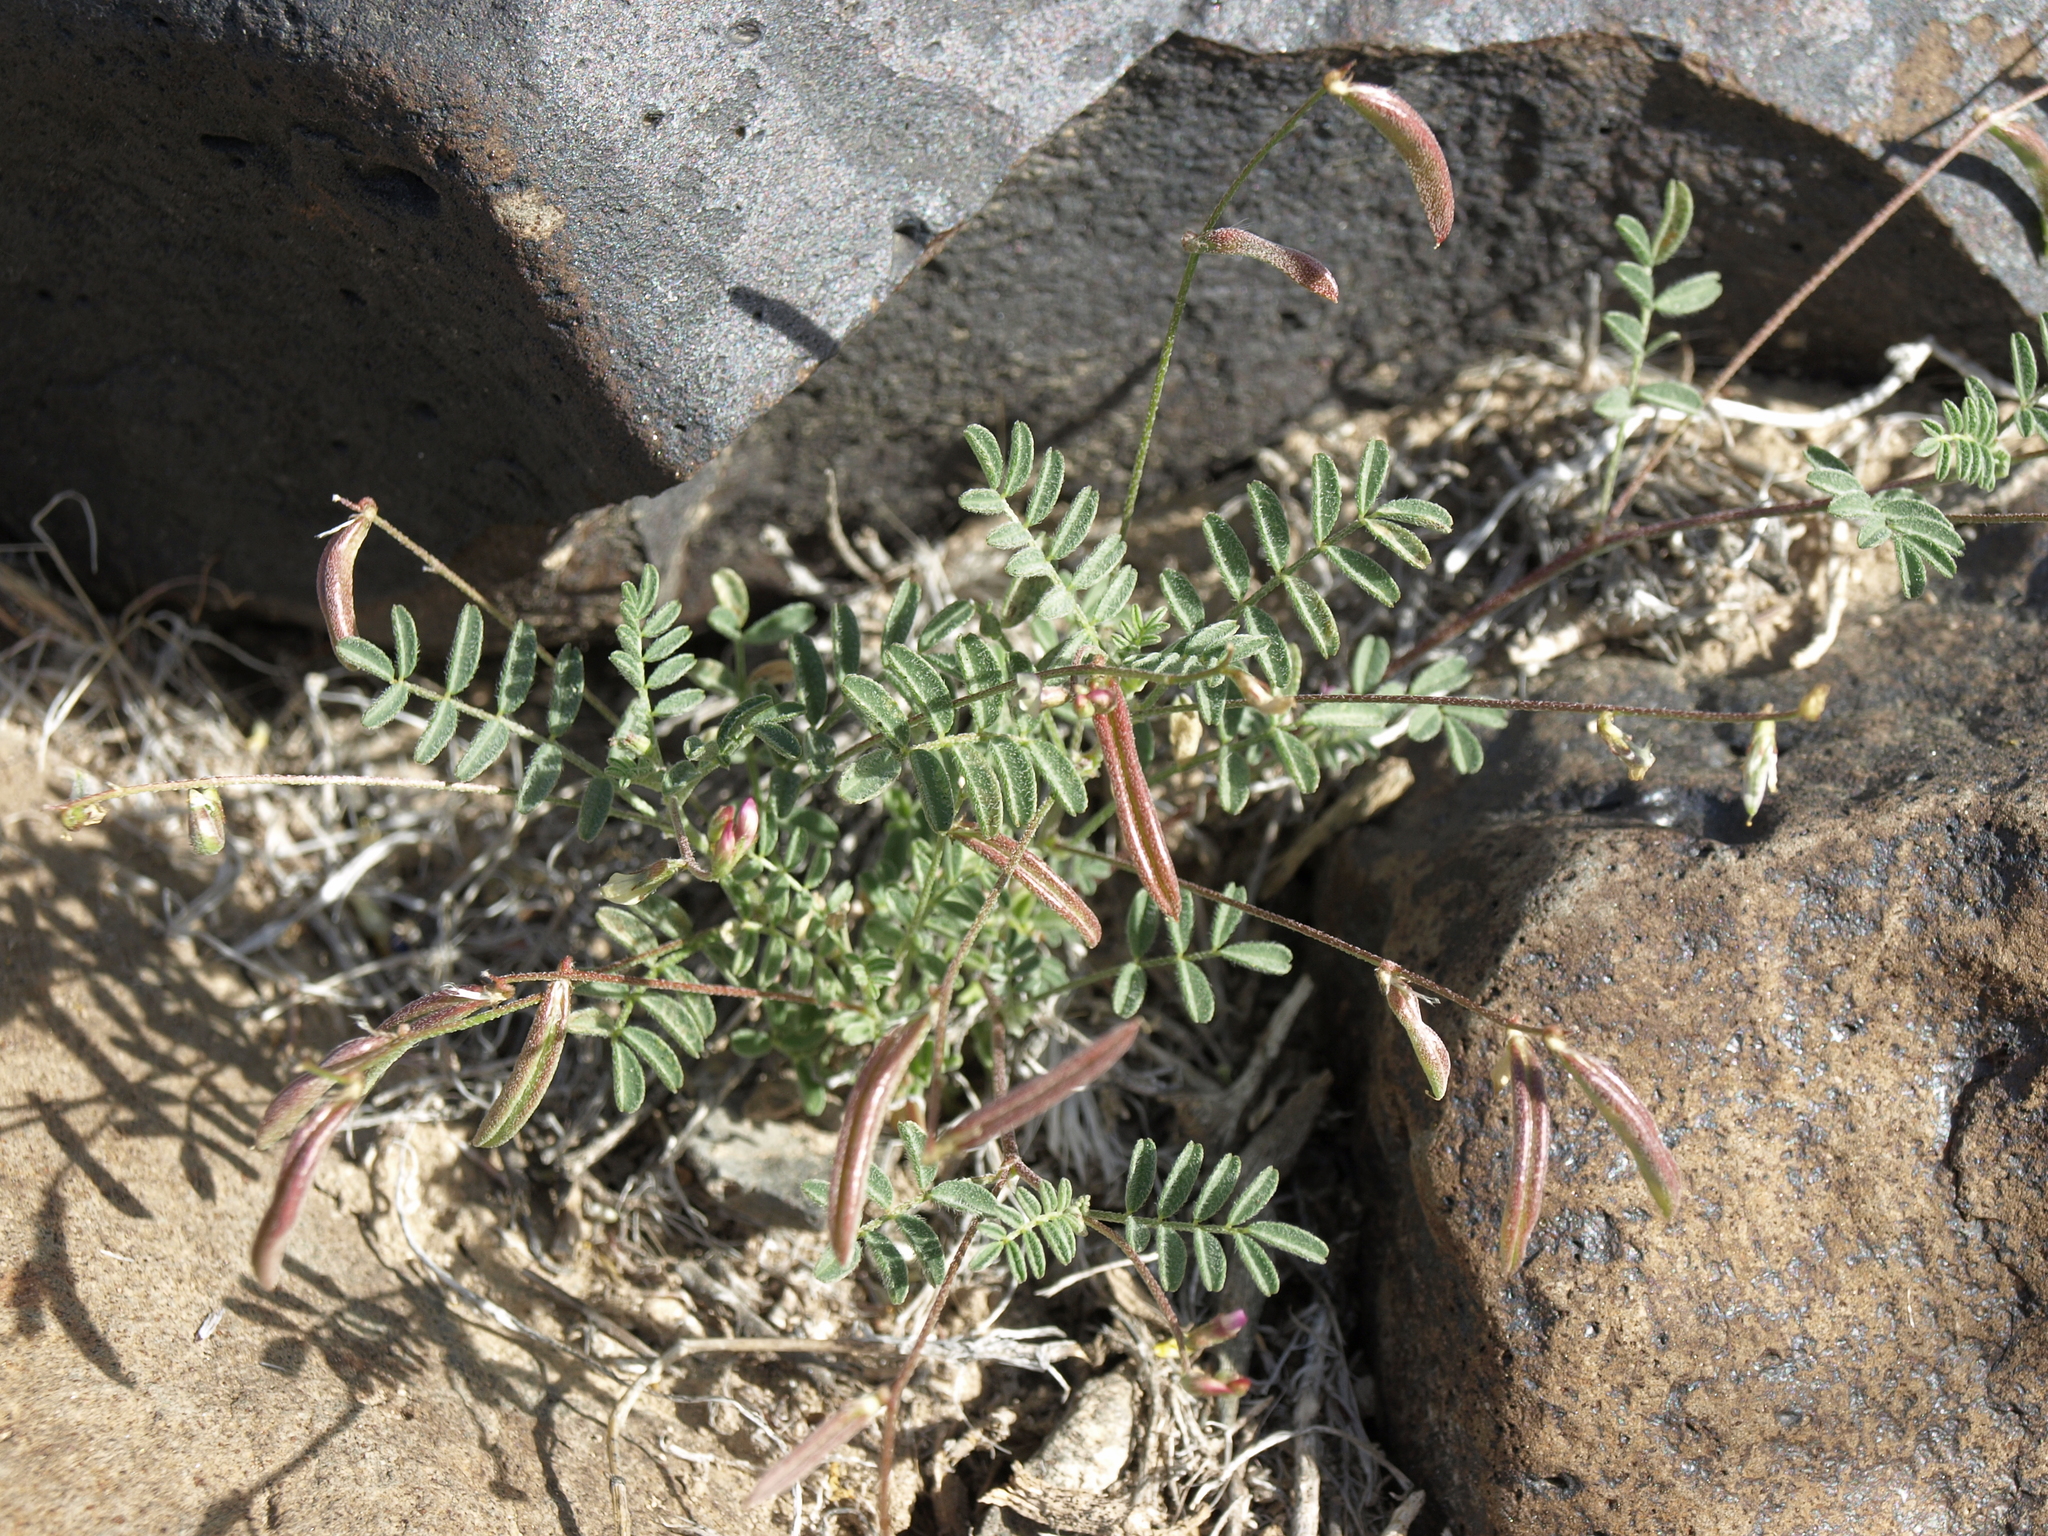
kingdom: Plantae
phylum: Tracheophyta
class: Magnoliopsida
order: Fabales
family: Fabaceae
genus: Astragalus
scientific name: Astragalus acutirostris
